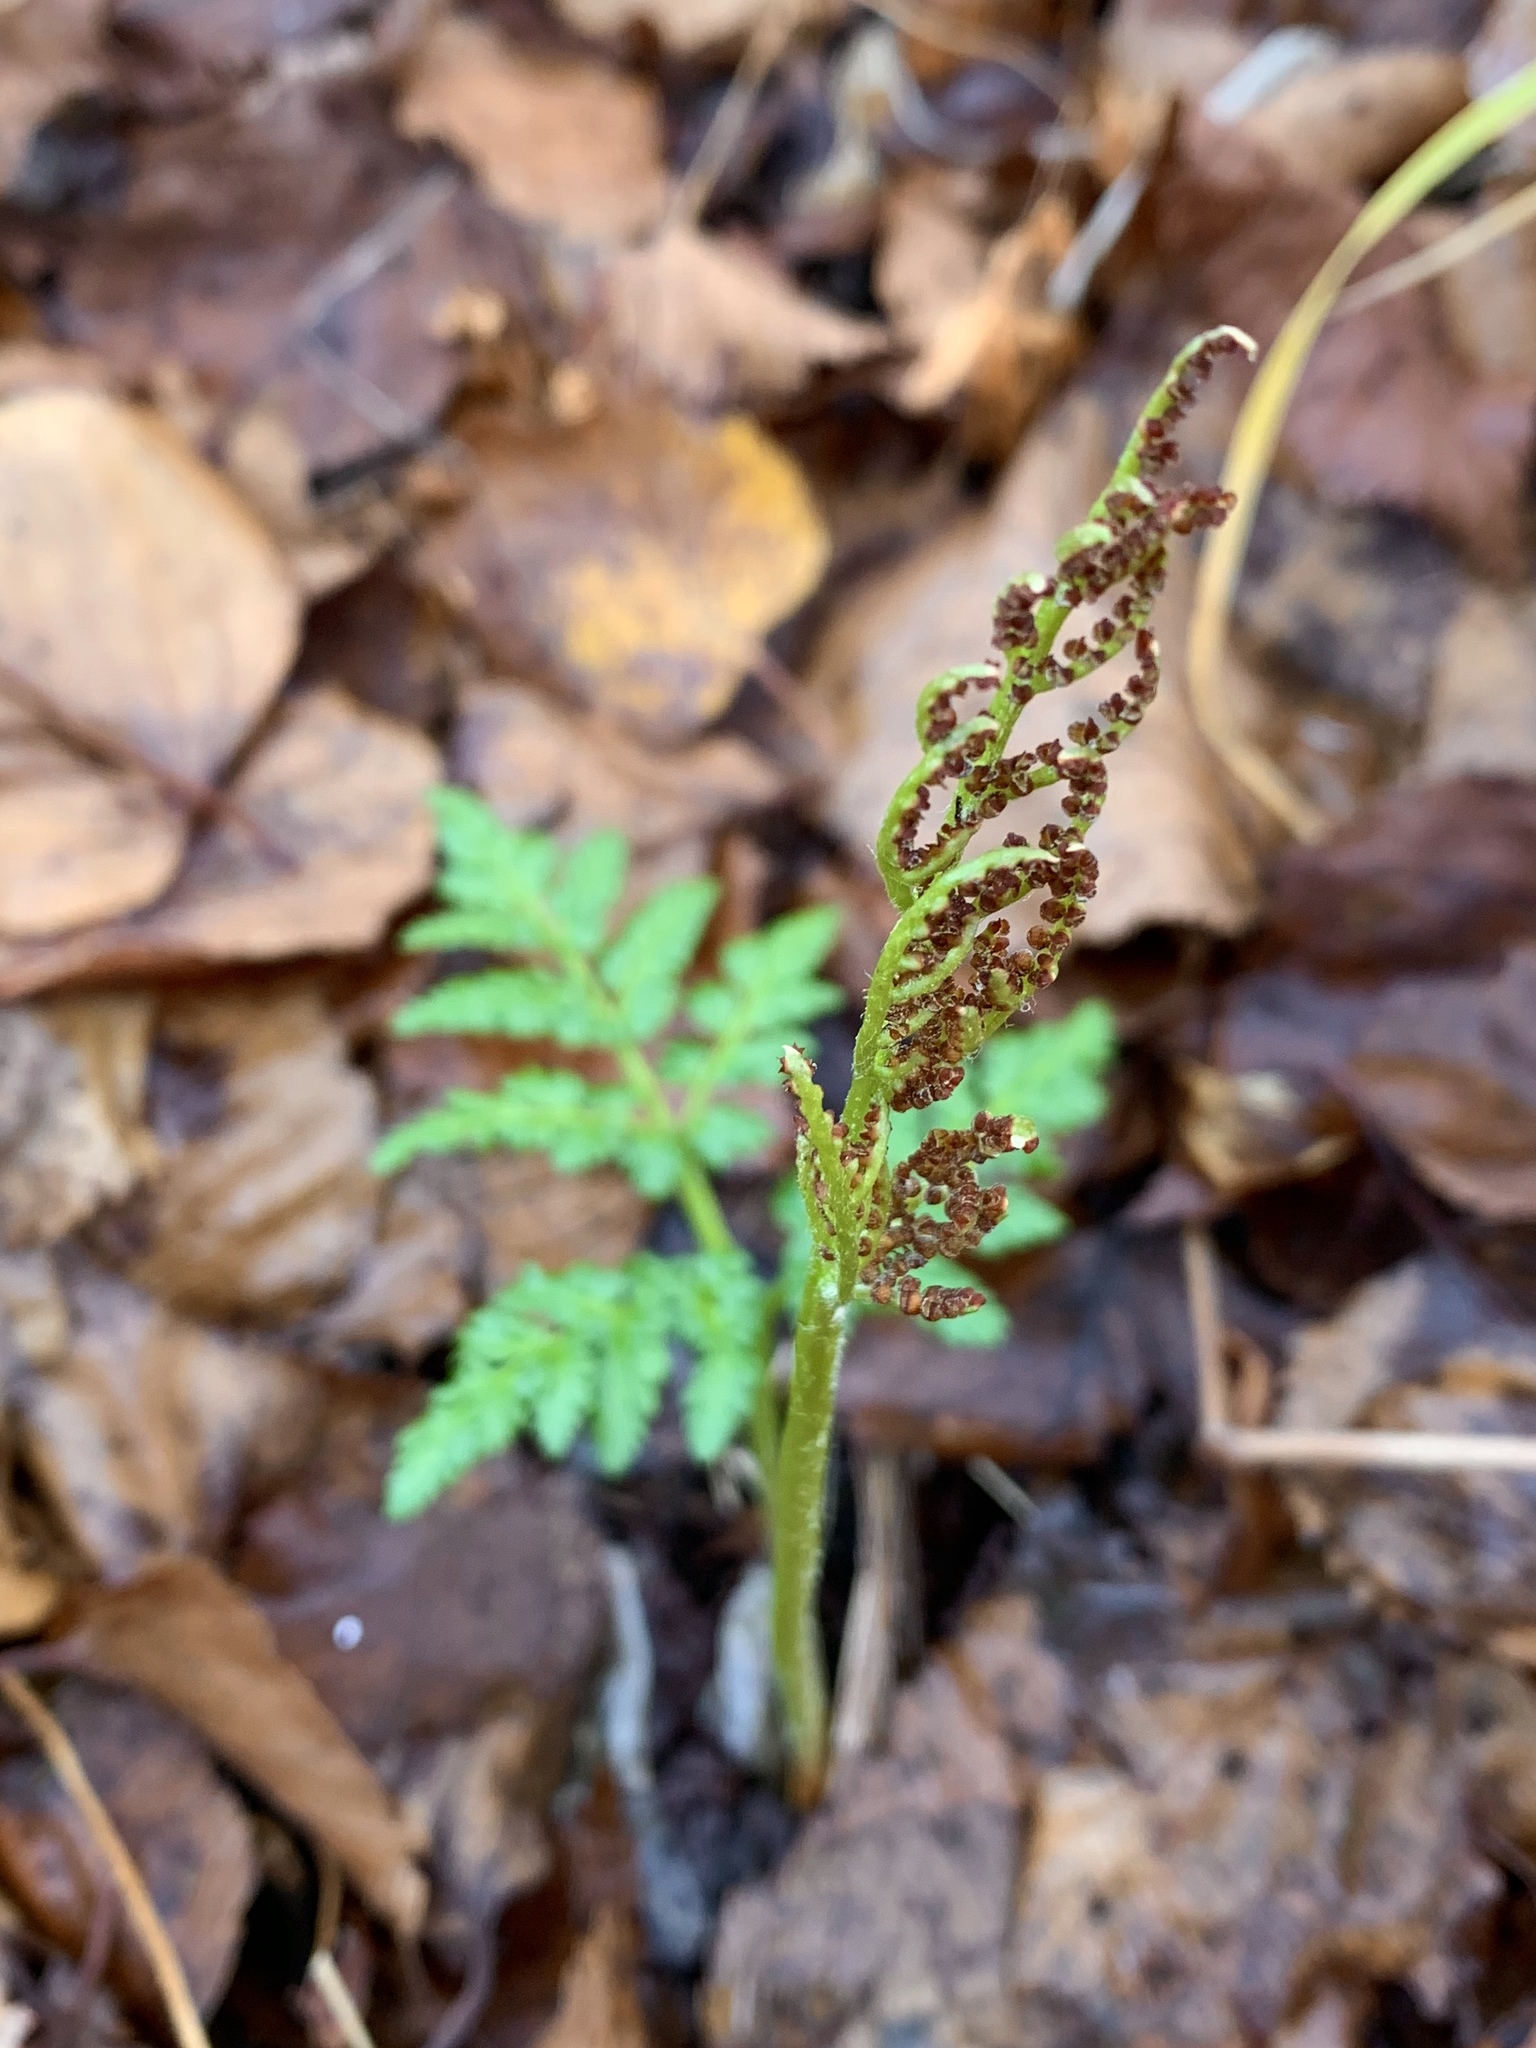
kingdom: Plantae
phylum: Tracheophyta
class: Polypodiopsida
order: Ophioglossales
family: Ophioglossaceae
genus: Sceptridium
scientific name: Sceptridium robustum
